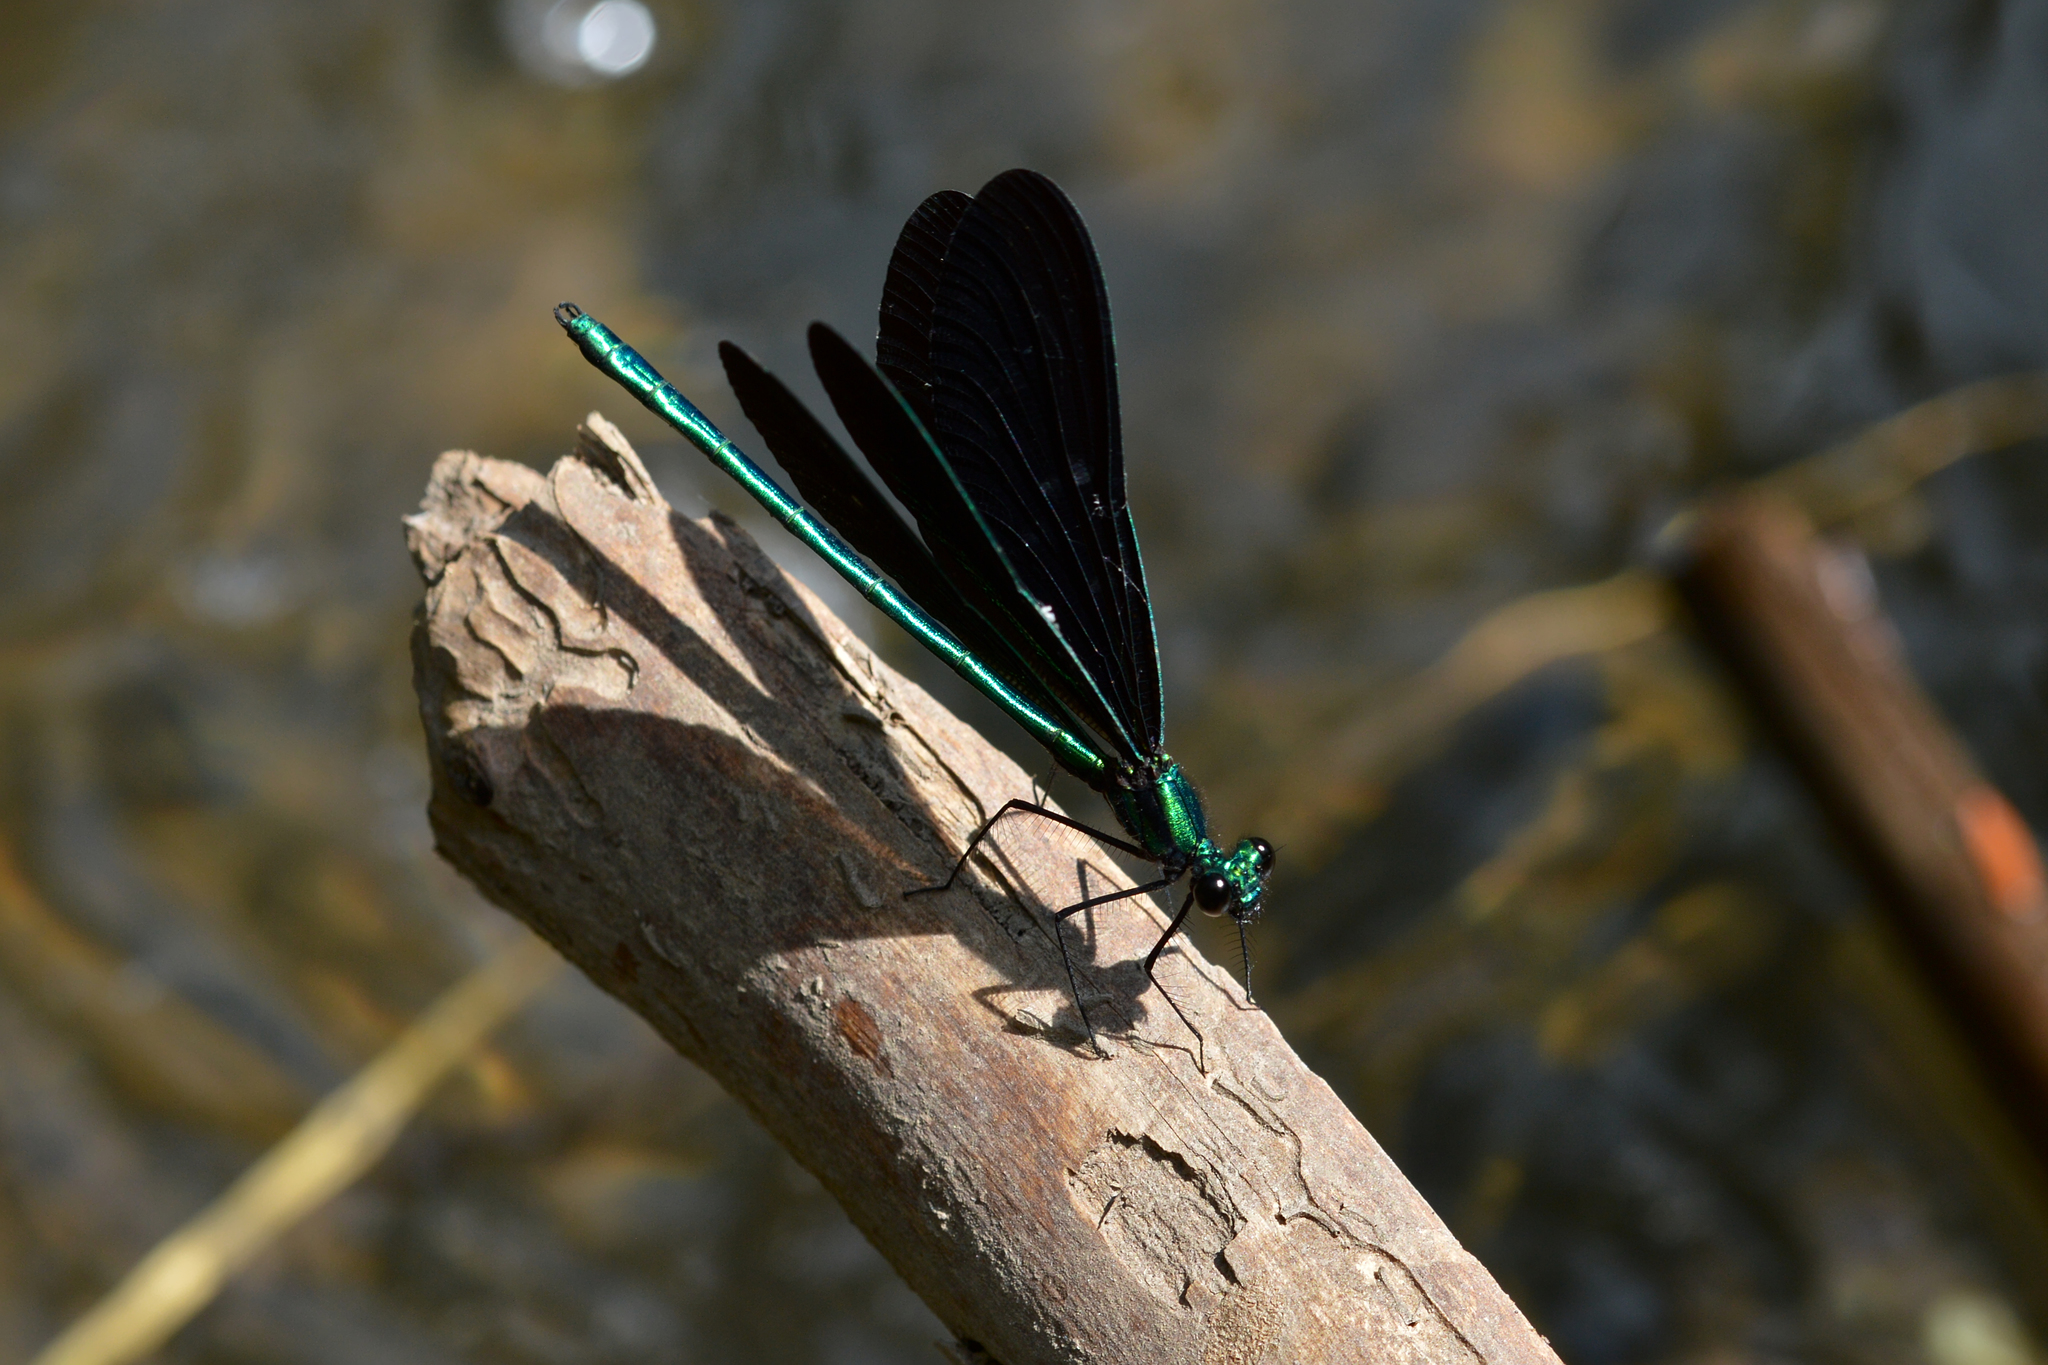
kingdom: Animalia
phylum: Arthropoda
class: Insecta
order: Odonata
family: Calopterygidae
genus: Calopteryx
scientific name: Calopteryx maculata
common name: Ebony jewelwing
